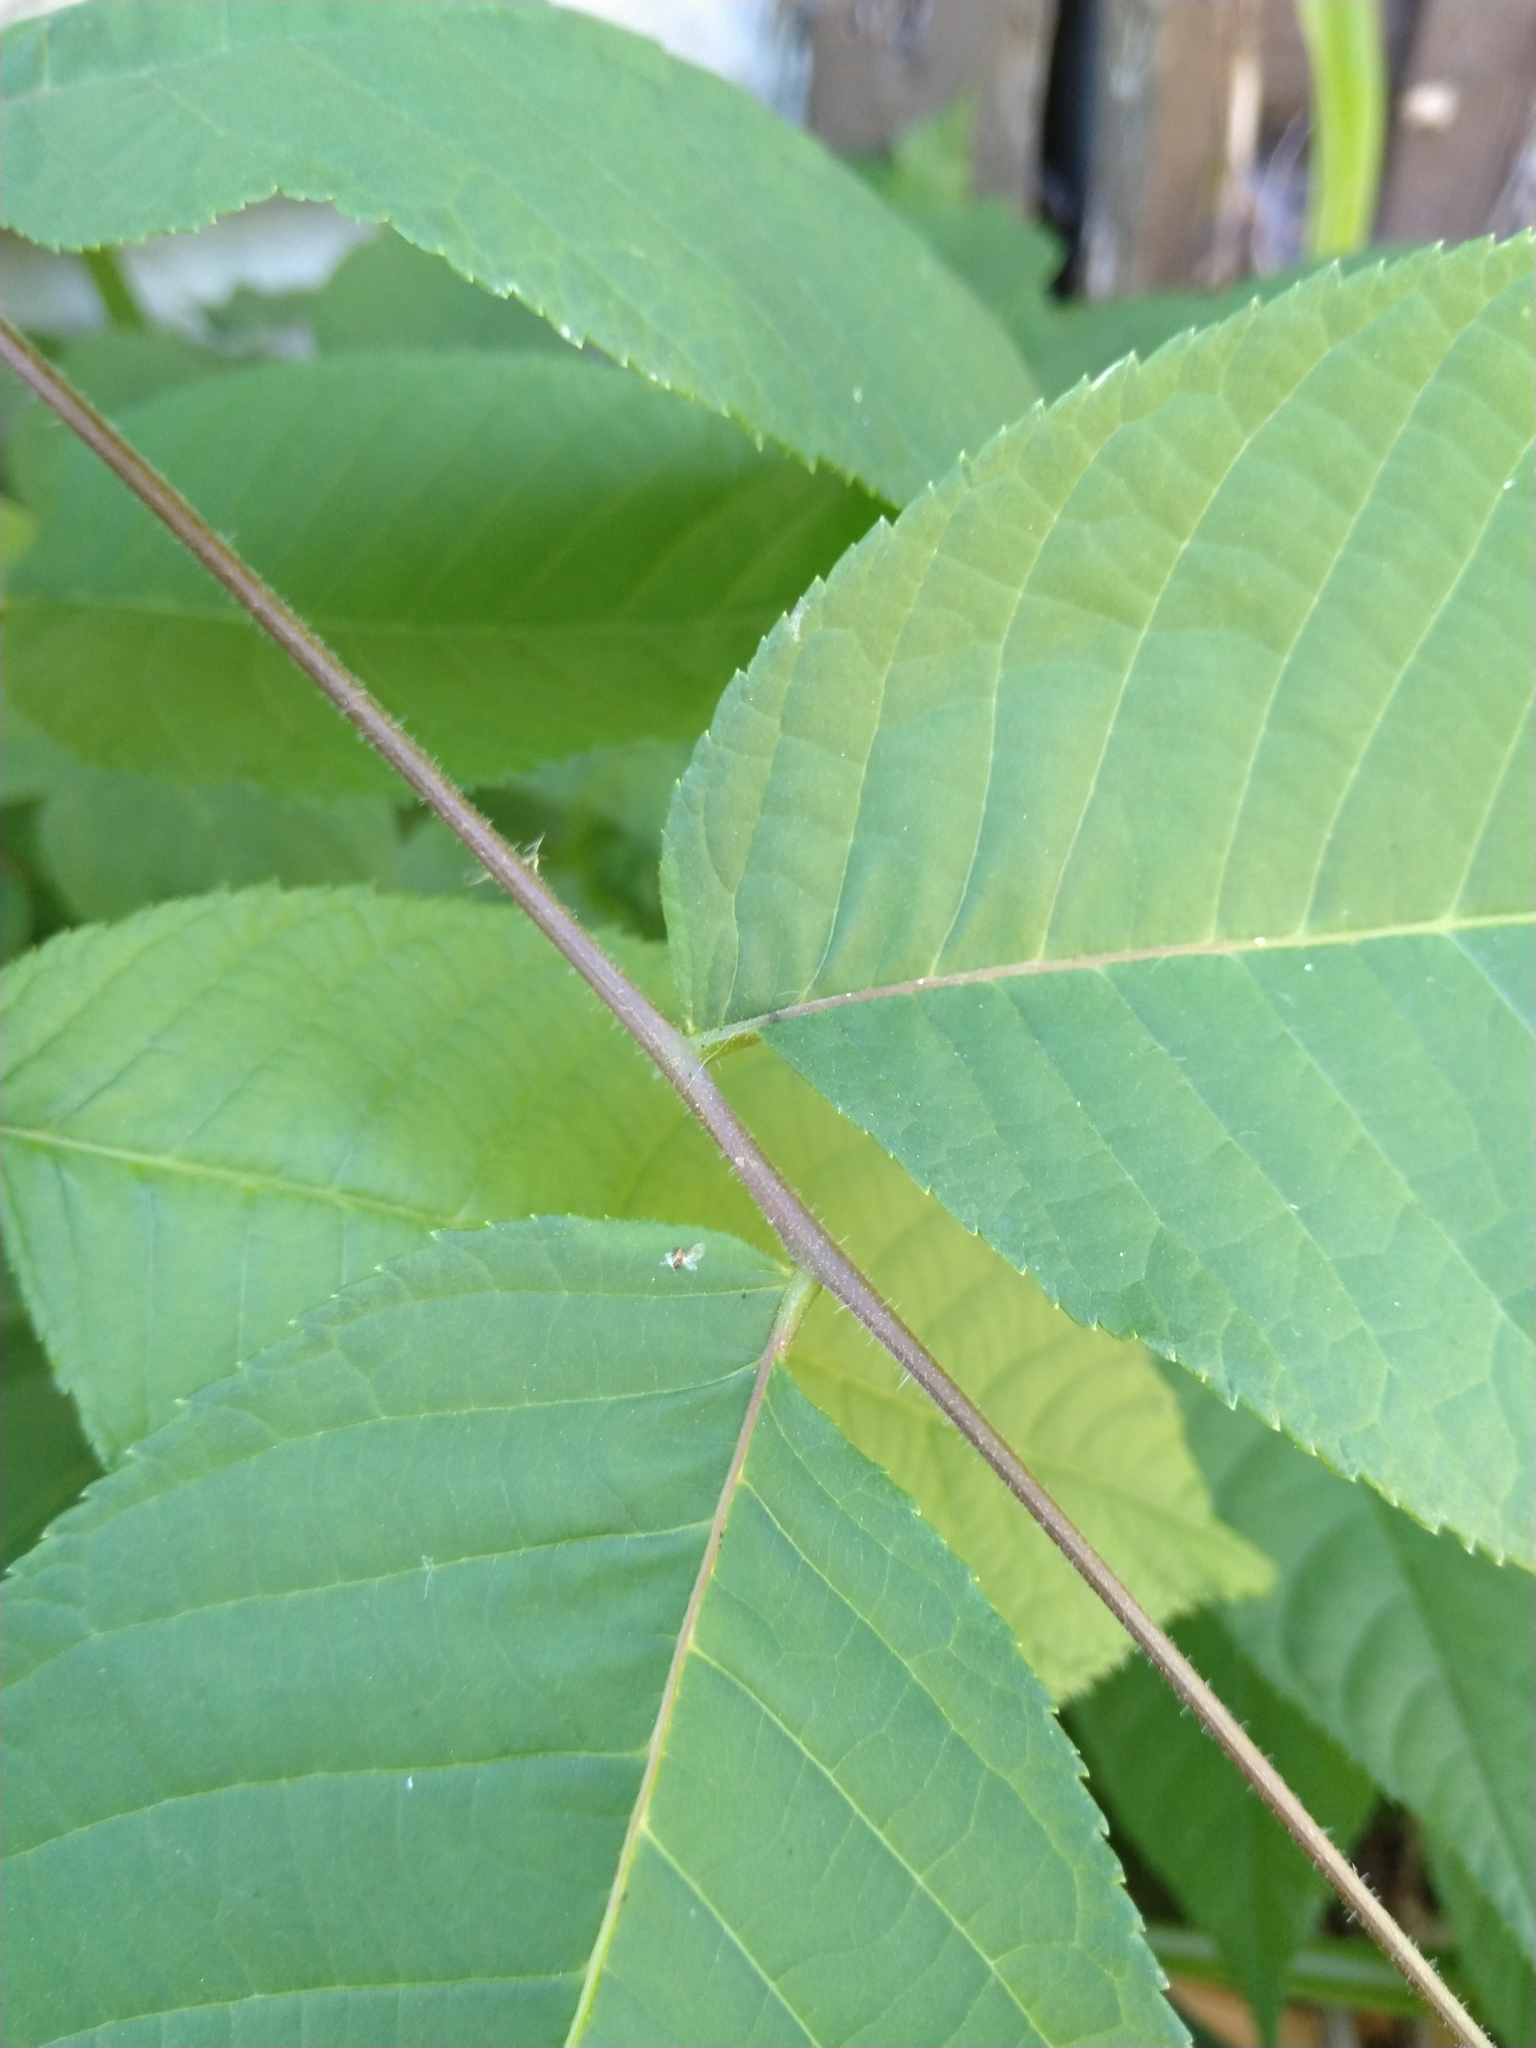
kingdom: Plantae
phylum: Tracheophyta
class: Magnoliopsida
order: Fagales
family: Juglandaceae
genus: Juglans
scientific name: Juglans nigra
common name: Black walnut
